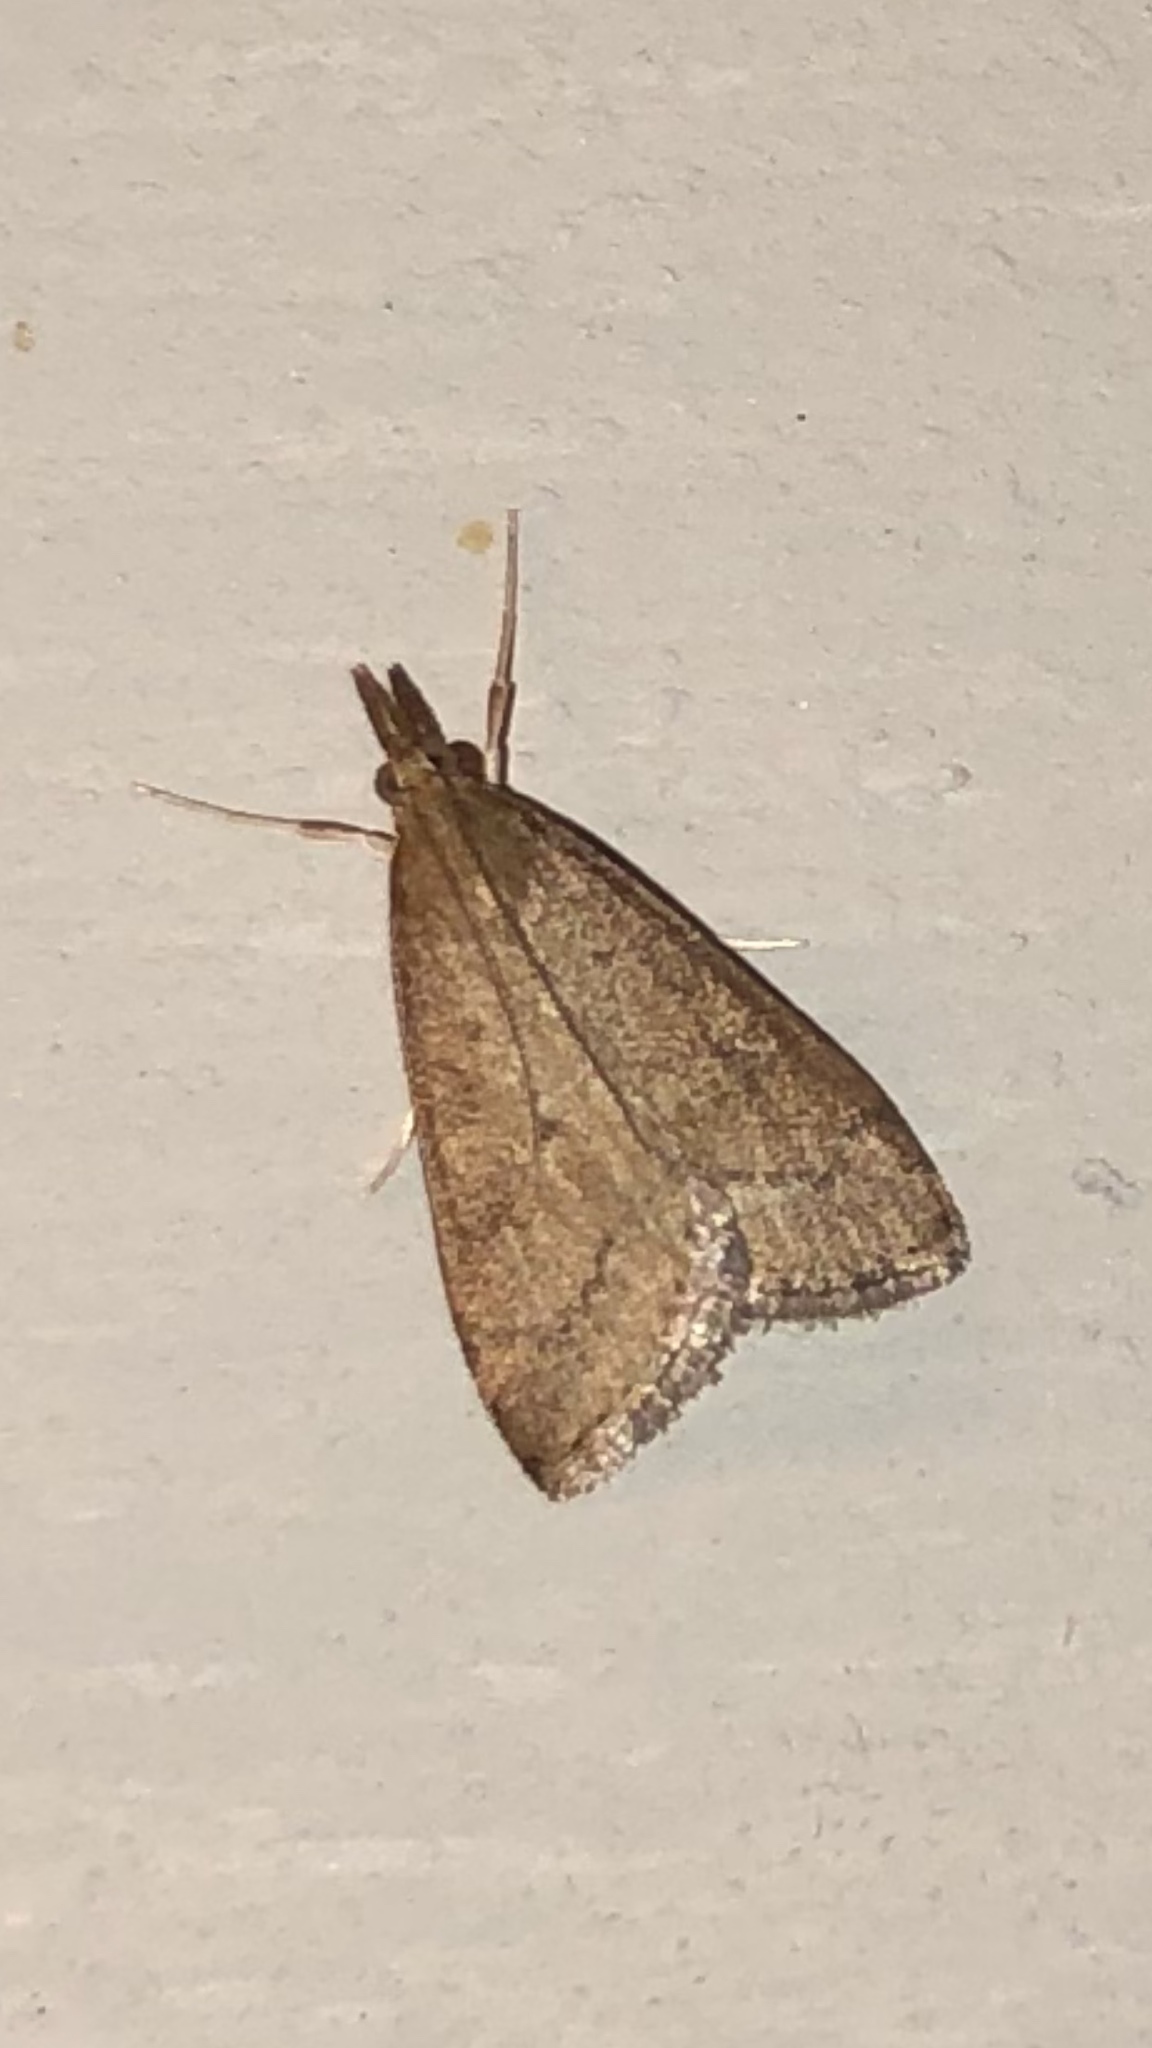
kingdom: Animalia
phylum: Arthropoda
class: Insecta
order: Lepidoptera
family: Crambidae
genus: Udea
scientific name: Udea rubigalis
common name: Celery leaftier moth
